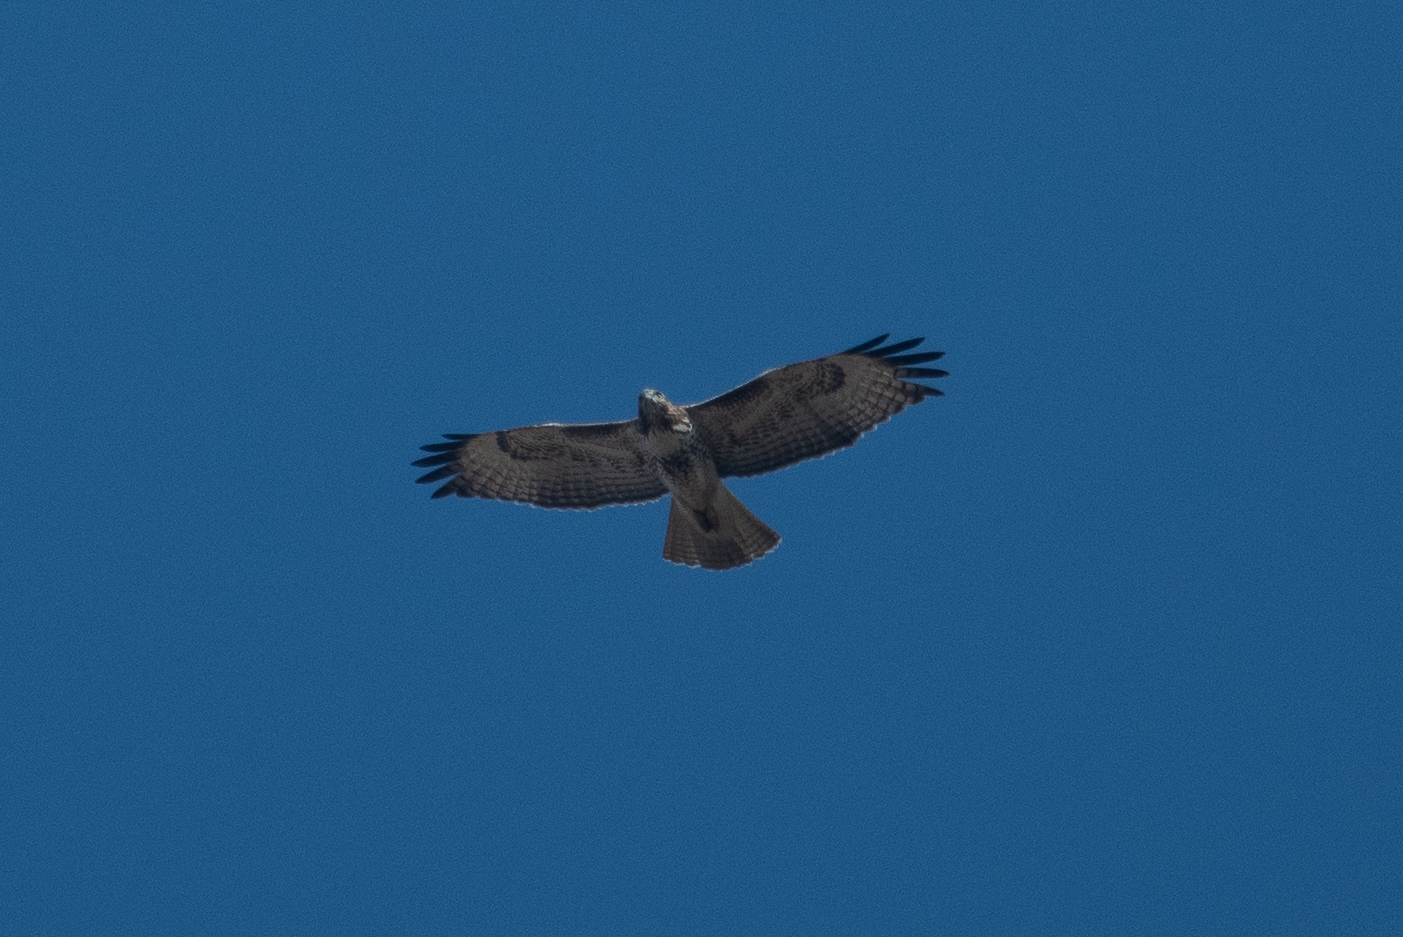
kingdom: Animalia
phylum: Chordata
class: Aves
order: Accipitriformes
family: Accipitridae
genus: Buteo
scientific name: Buteo jamaicensis
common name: Red-tailed hawk
